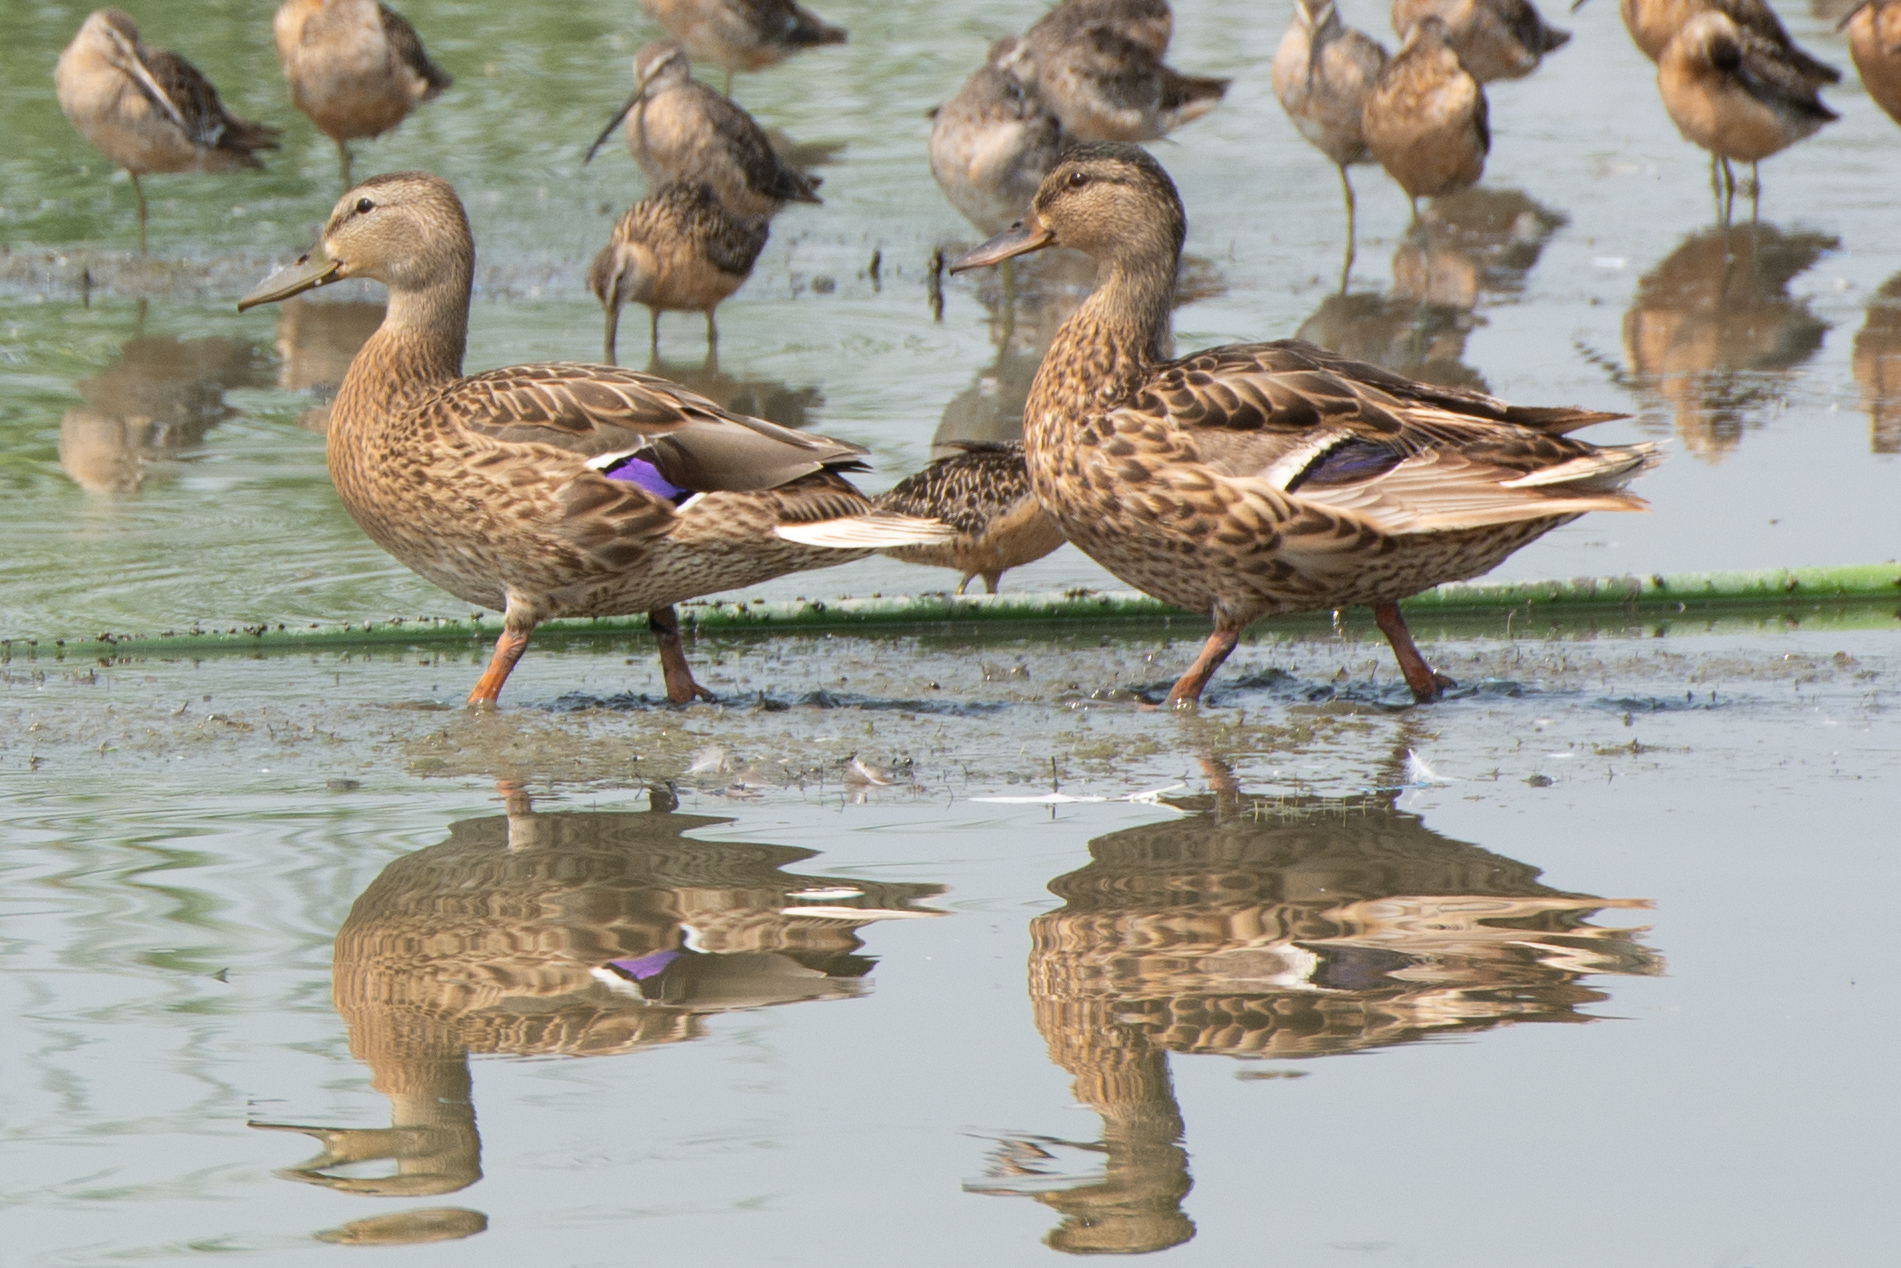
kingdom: Animalia
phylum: Chordata
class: Aves
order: Anseriformes
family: Anatidae
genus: Anas
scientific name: Anas platyrhynchos
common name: Mallard
